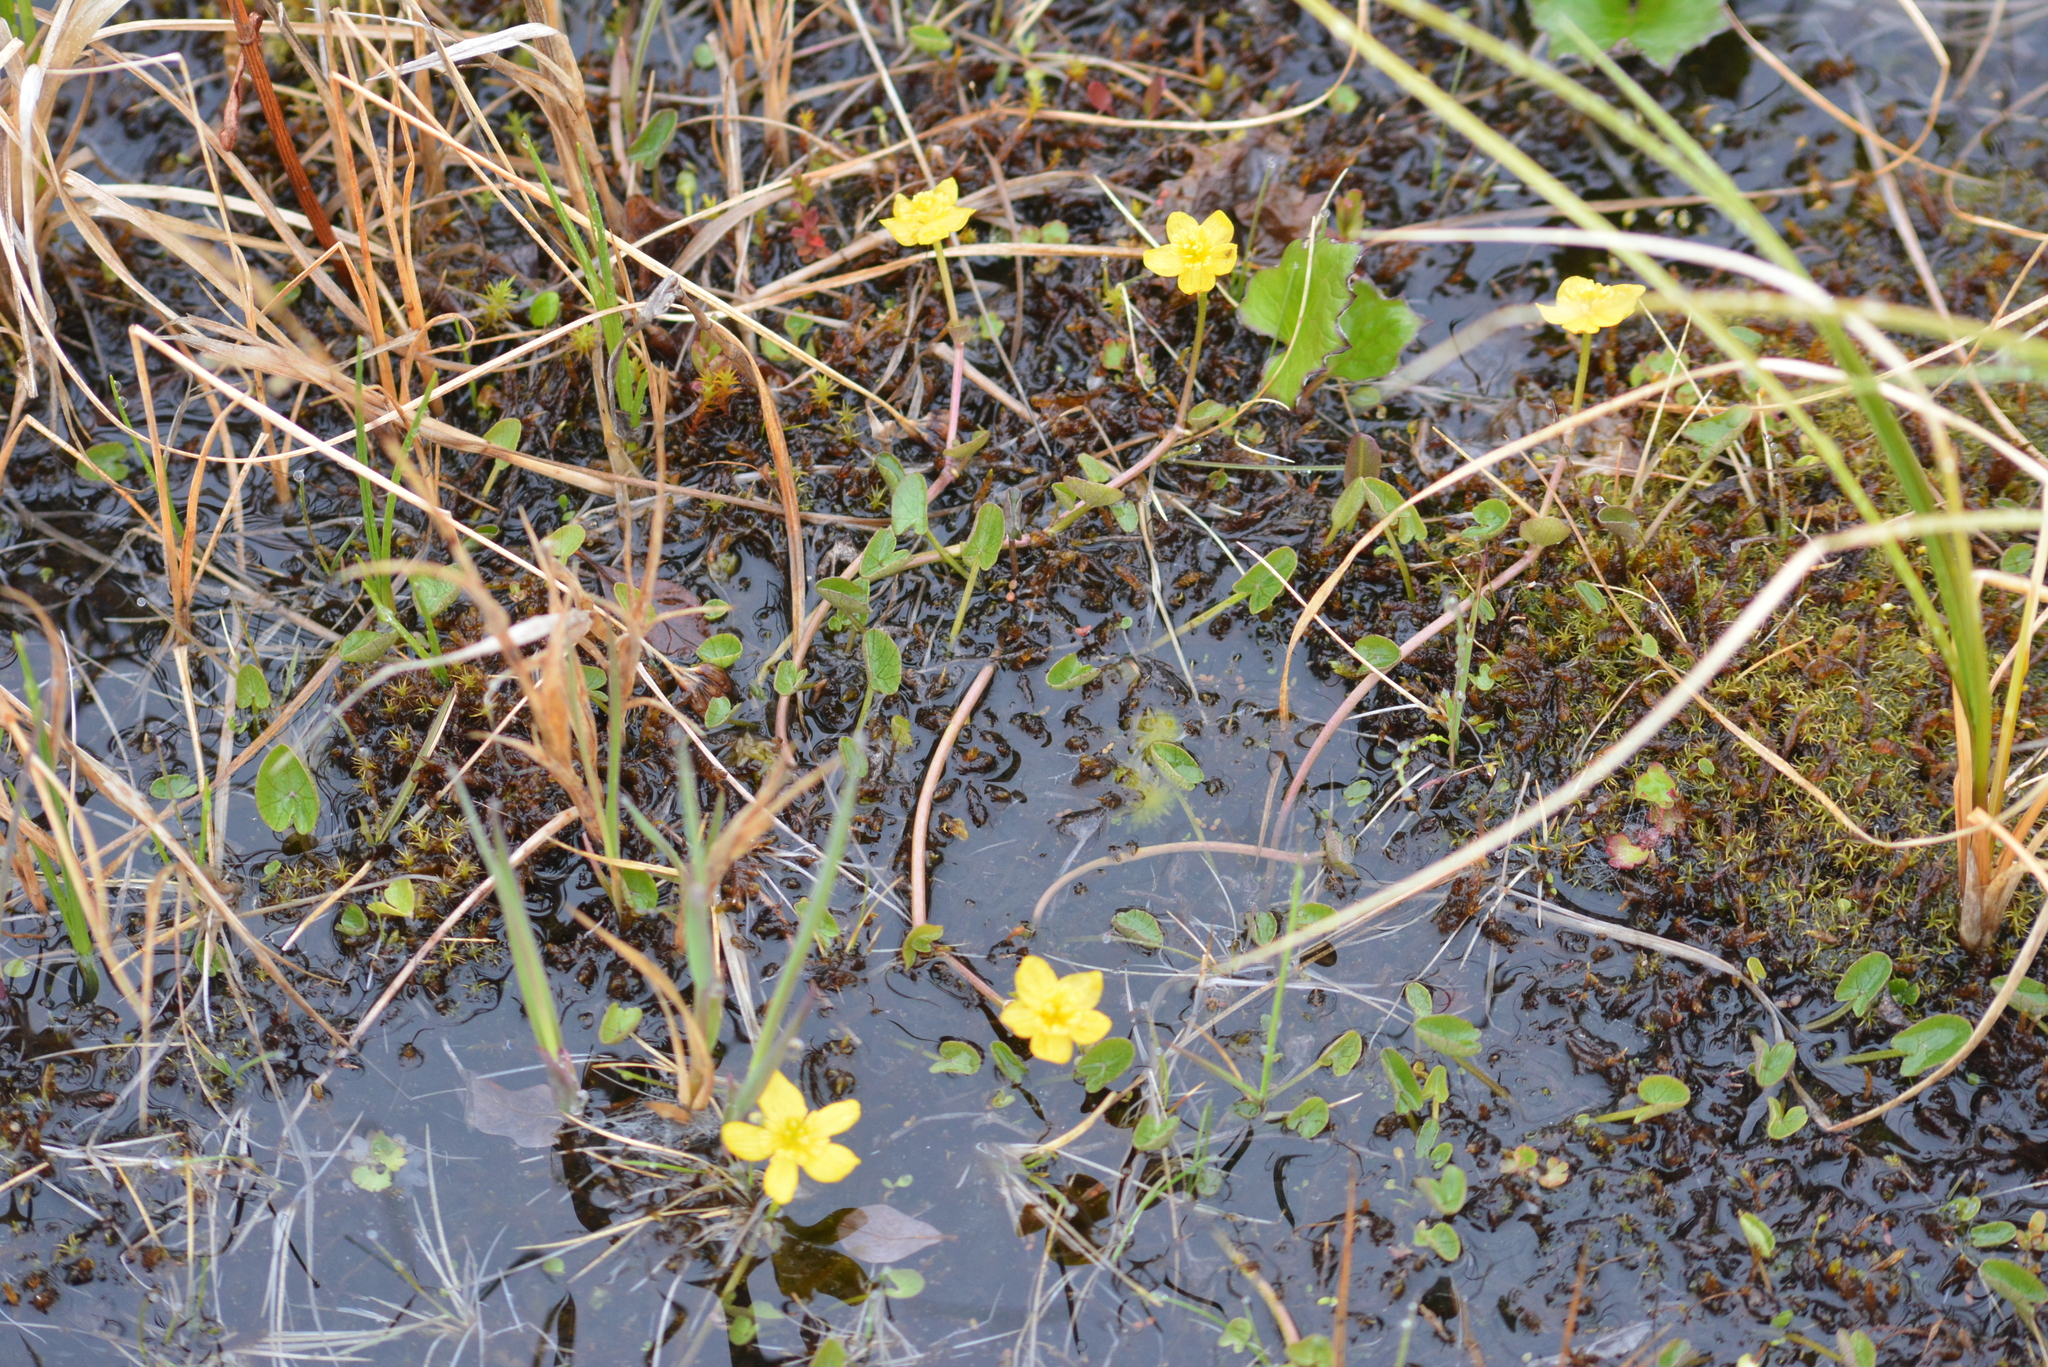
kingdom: Plantae
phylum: Tracheophyta
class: Magnoliopsida
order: Ranunculales
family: Ranunculaceae
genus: Caltha
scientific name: Caltha palustris
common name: Marsh marigold
